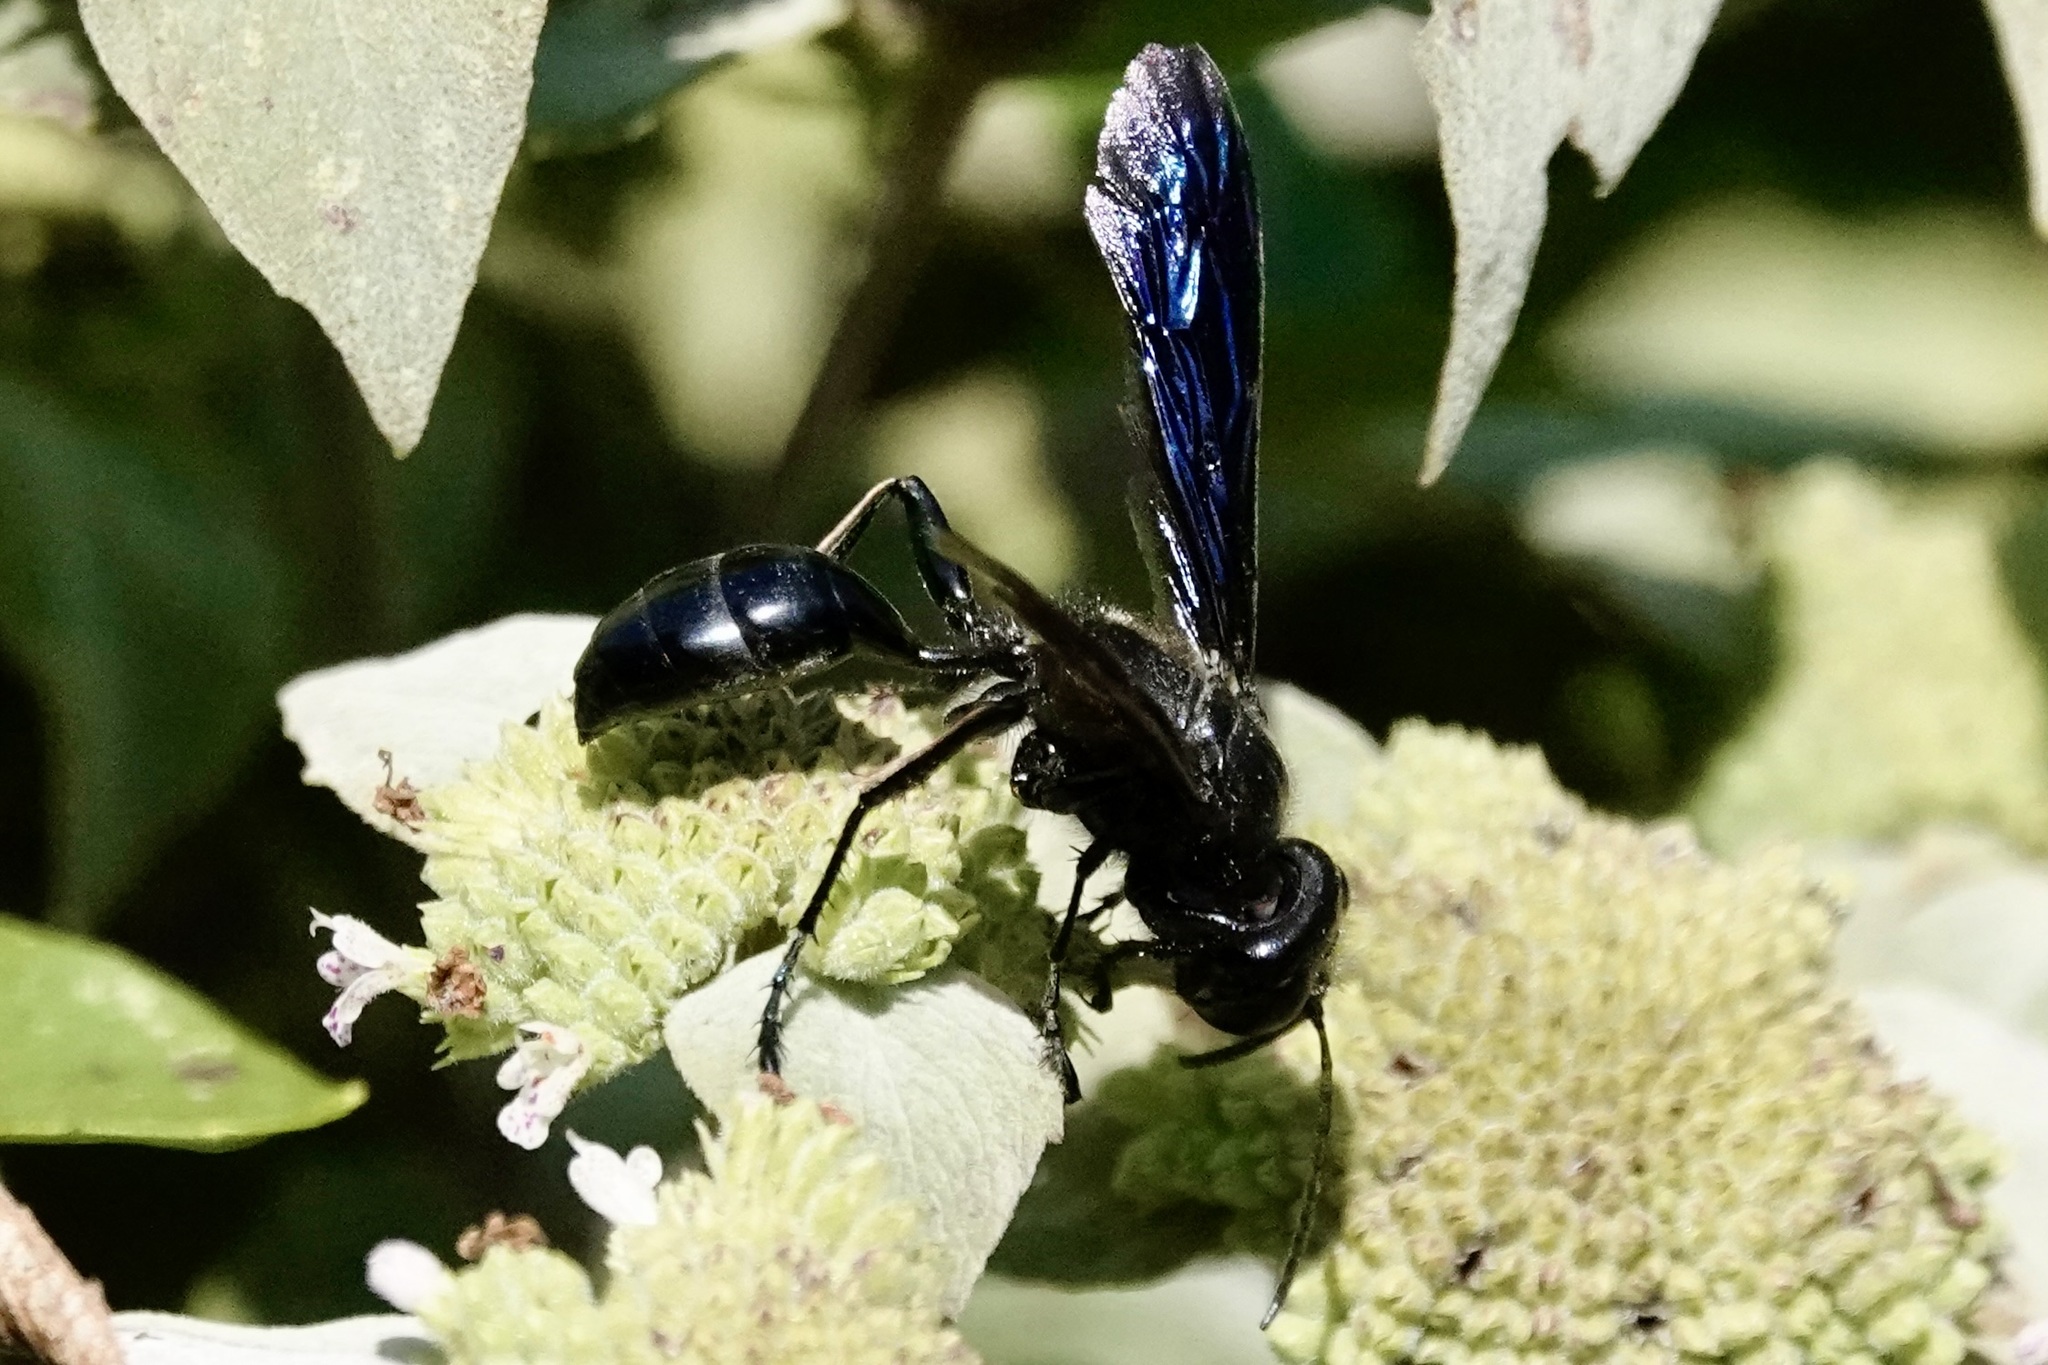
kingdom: Animalia
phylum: Arthropoda
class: Insecta
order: Hymenoptera
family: Sphecidae
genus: Isodontia
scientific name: Isodontia philadelphica
